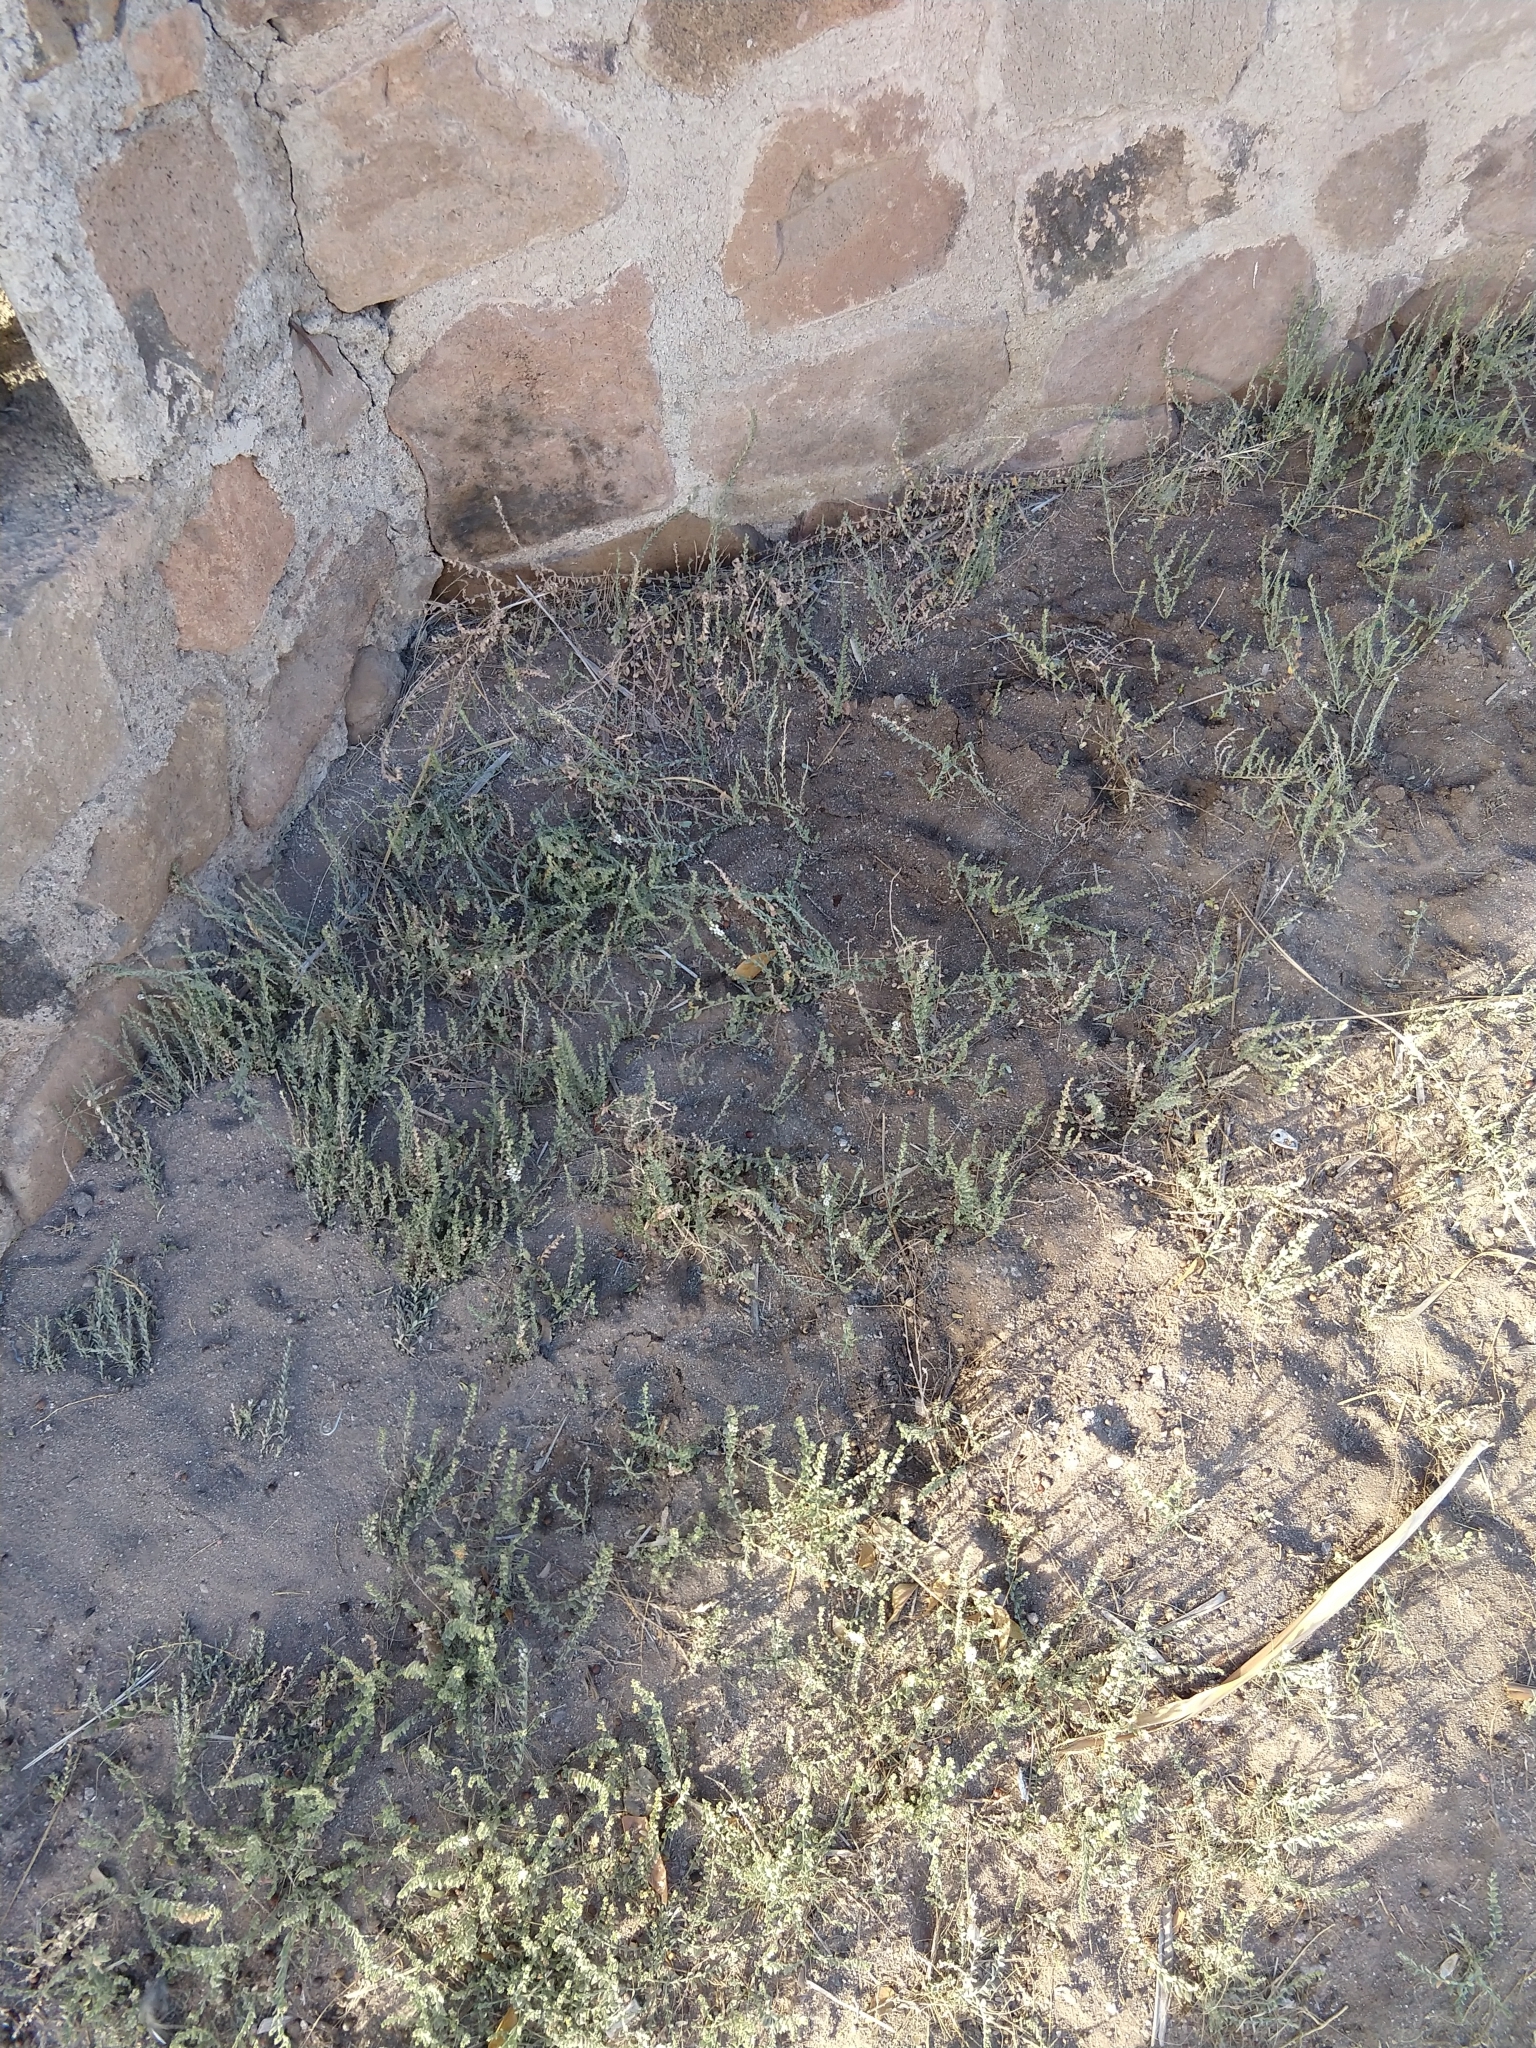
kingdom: Plantae
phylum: Tracheophyta
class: Magnoliopsida
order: Solanales
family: Convolvulaceae
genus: Cressa
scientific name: Cressa truxillensis
